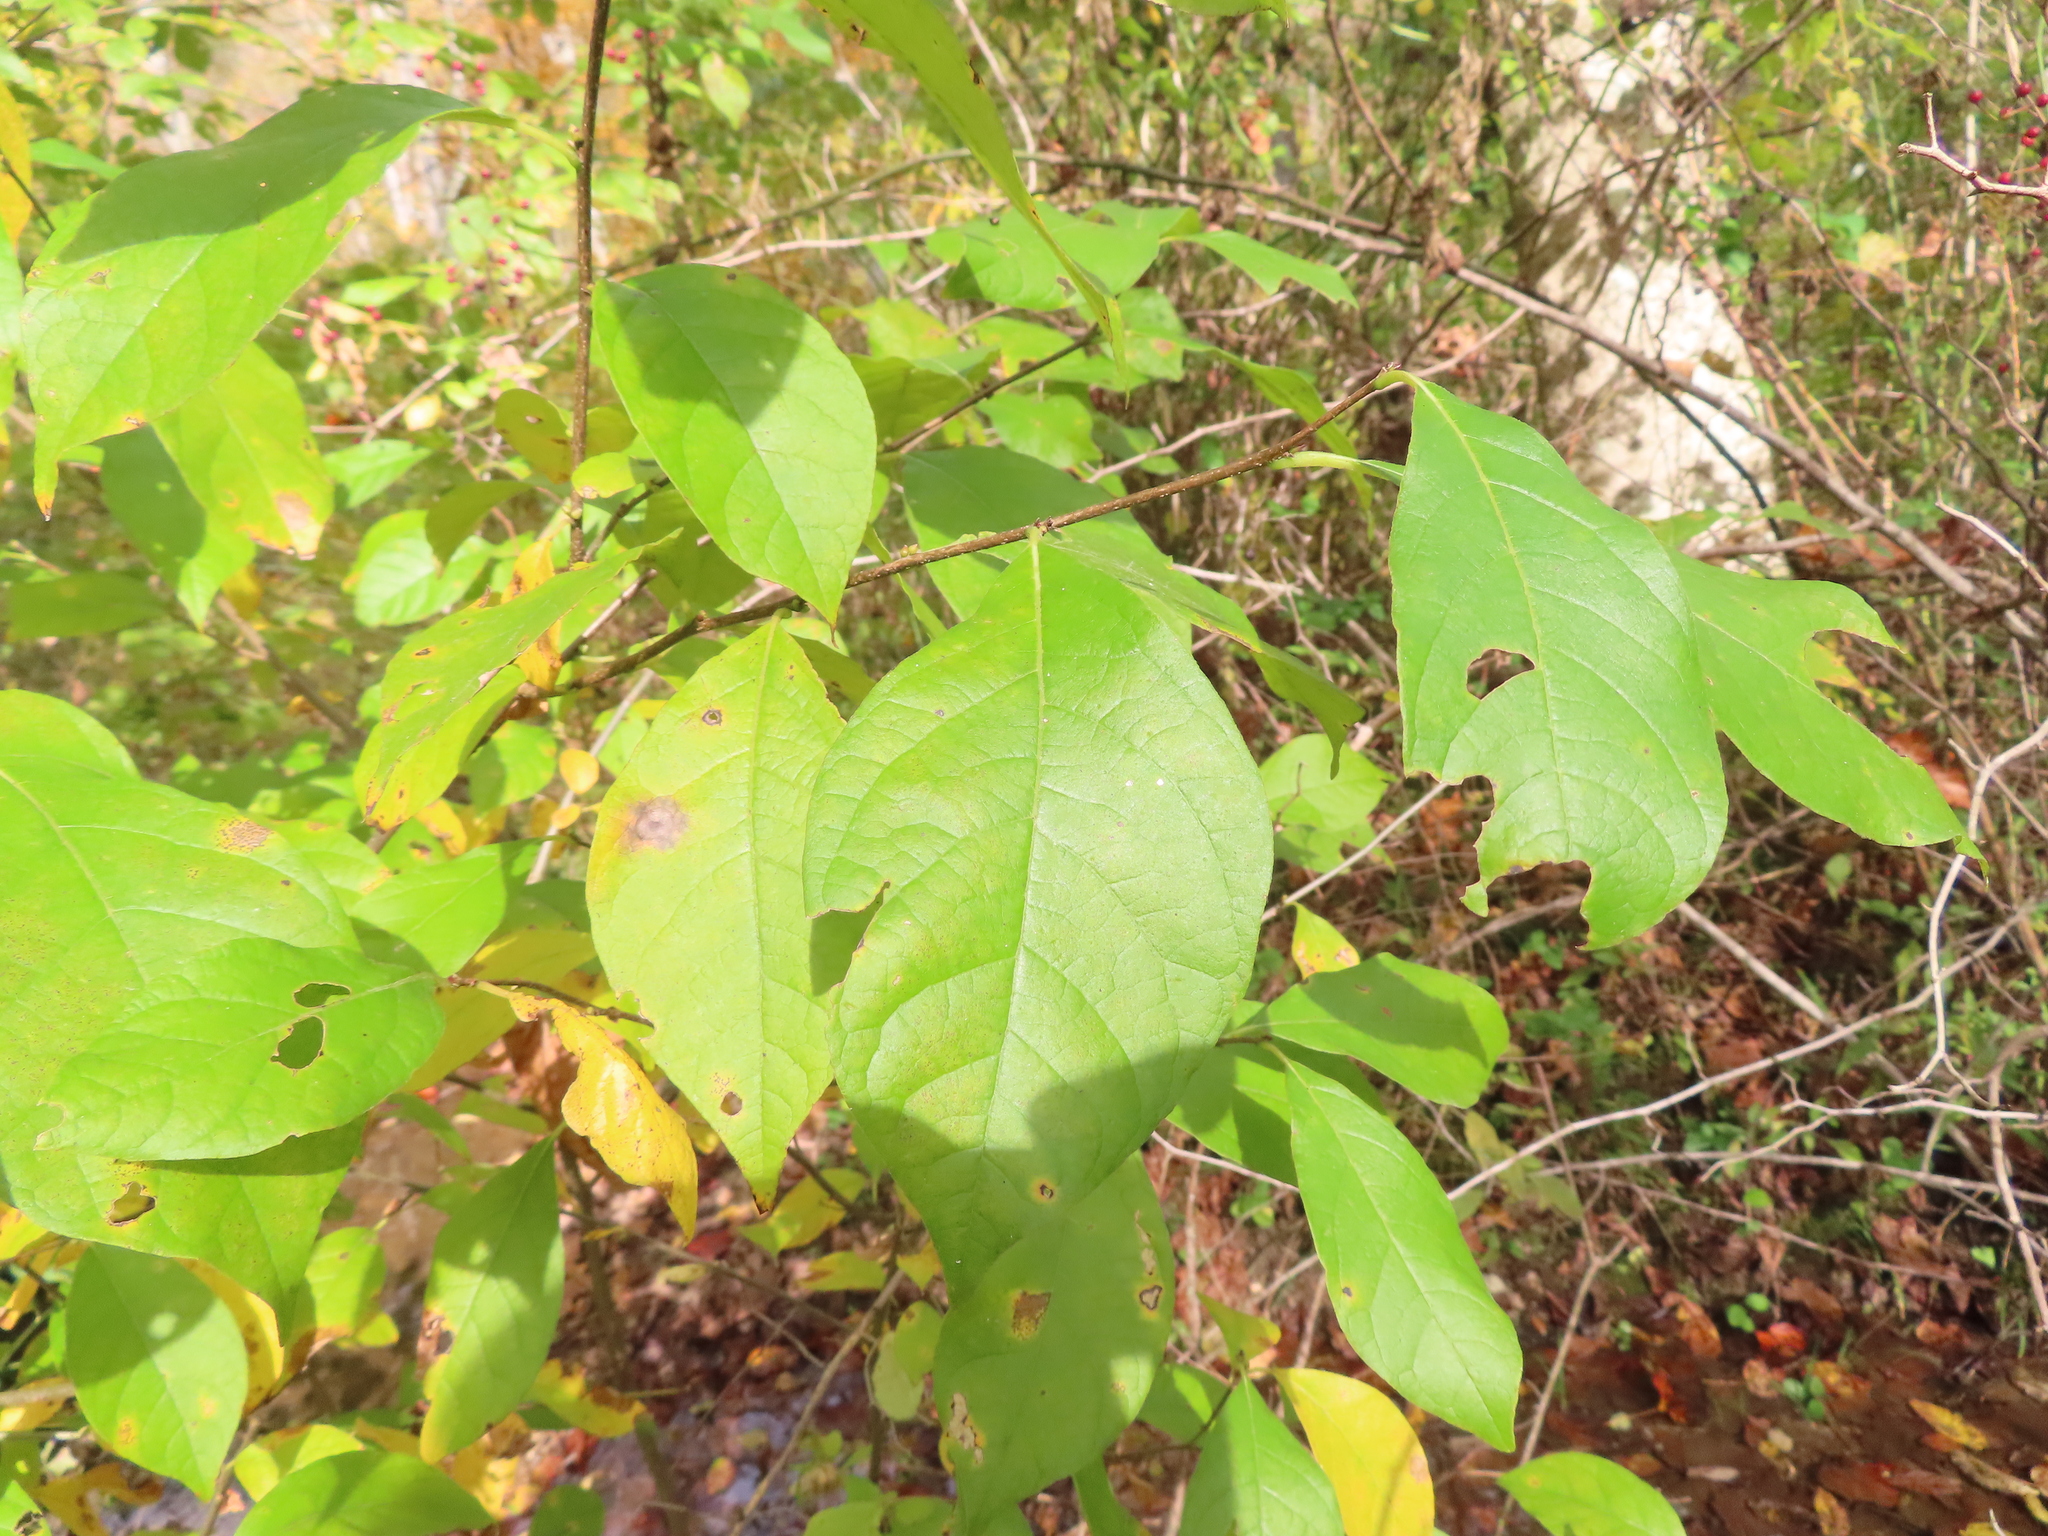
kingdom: Plantae
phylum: Tracheophyta
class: Magnoliopsida
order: Laurales
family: Lauraceae
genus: Lindera
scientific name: Lindera benzoin
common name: Spicebush
